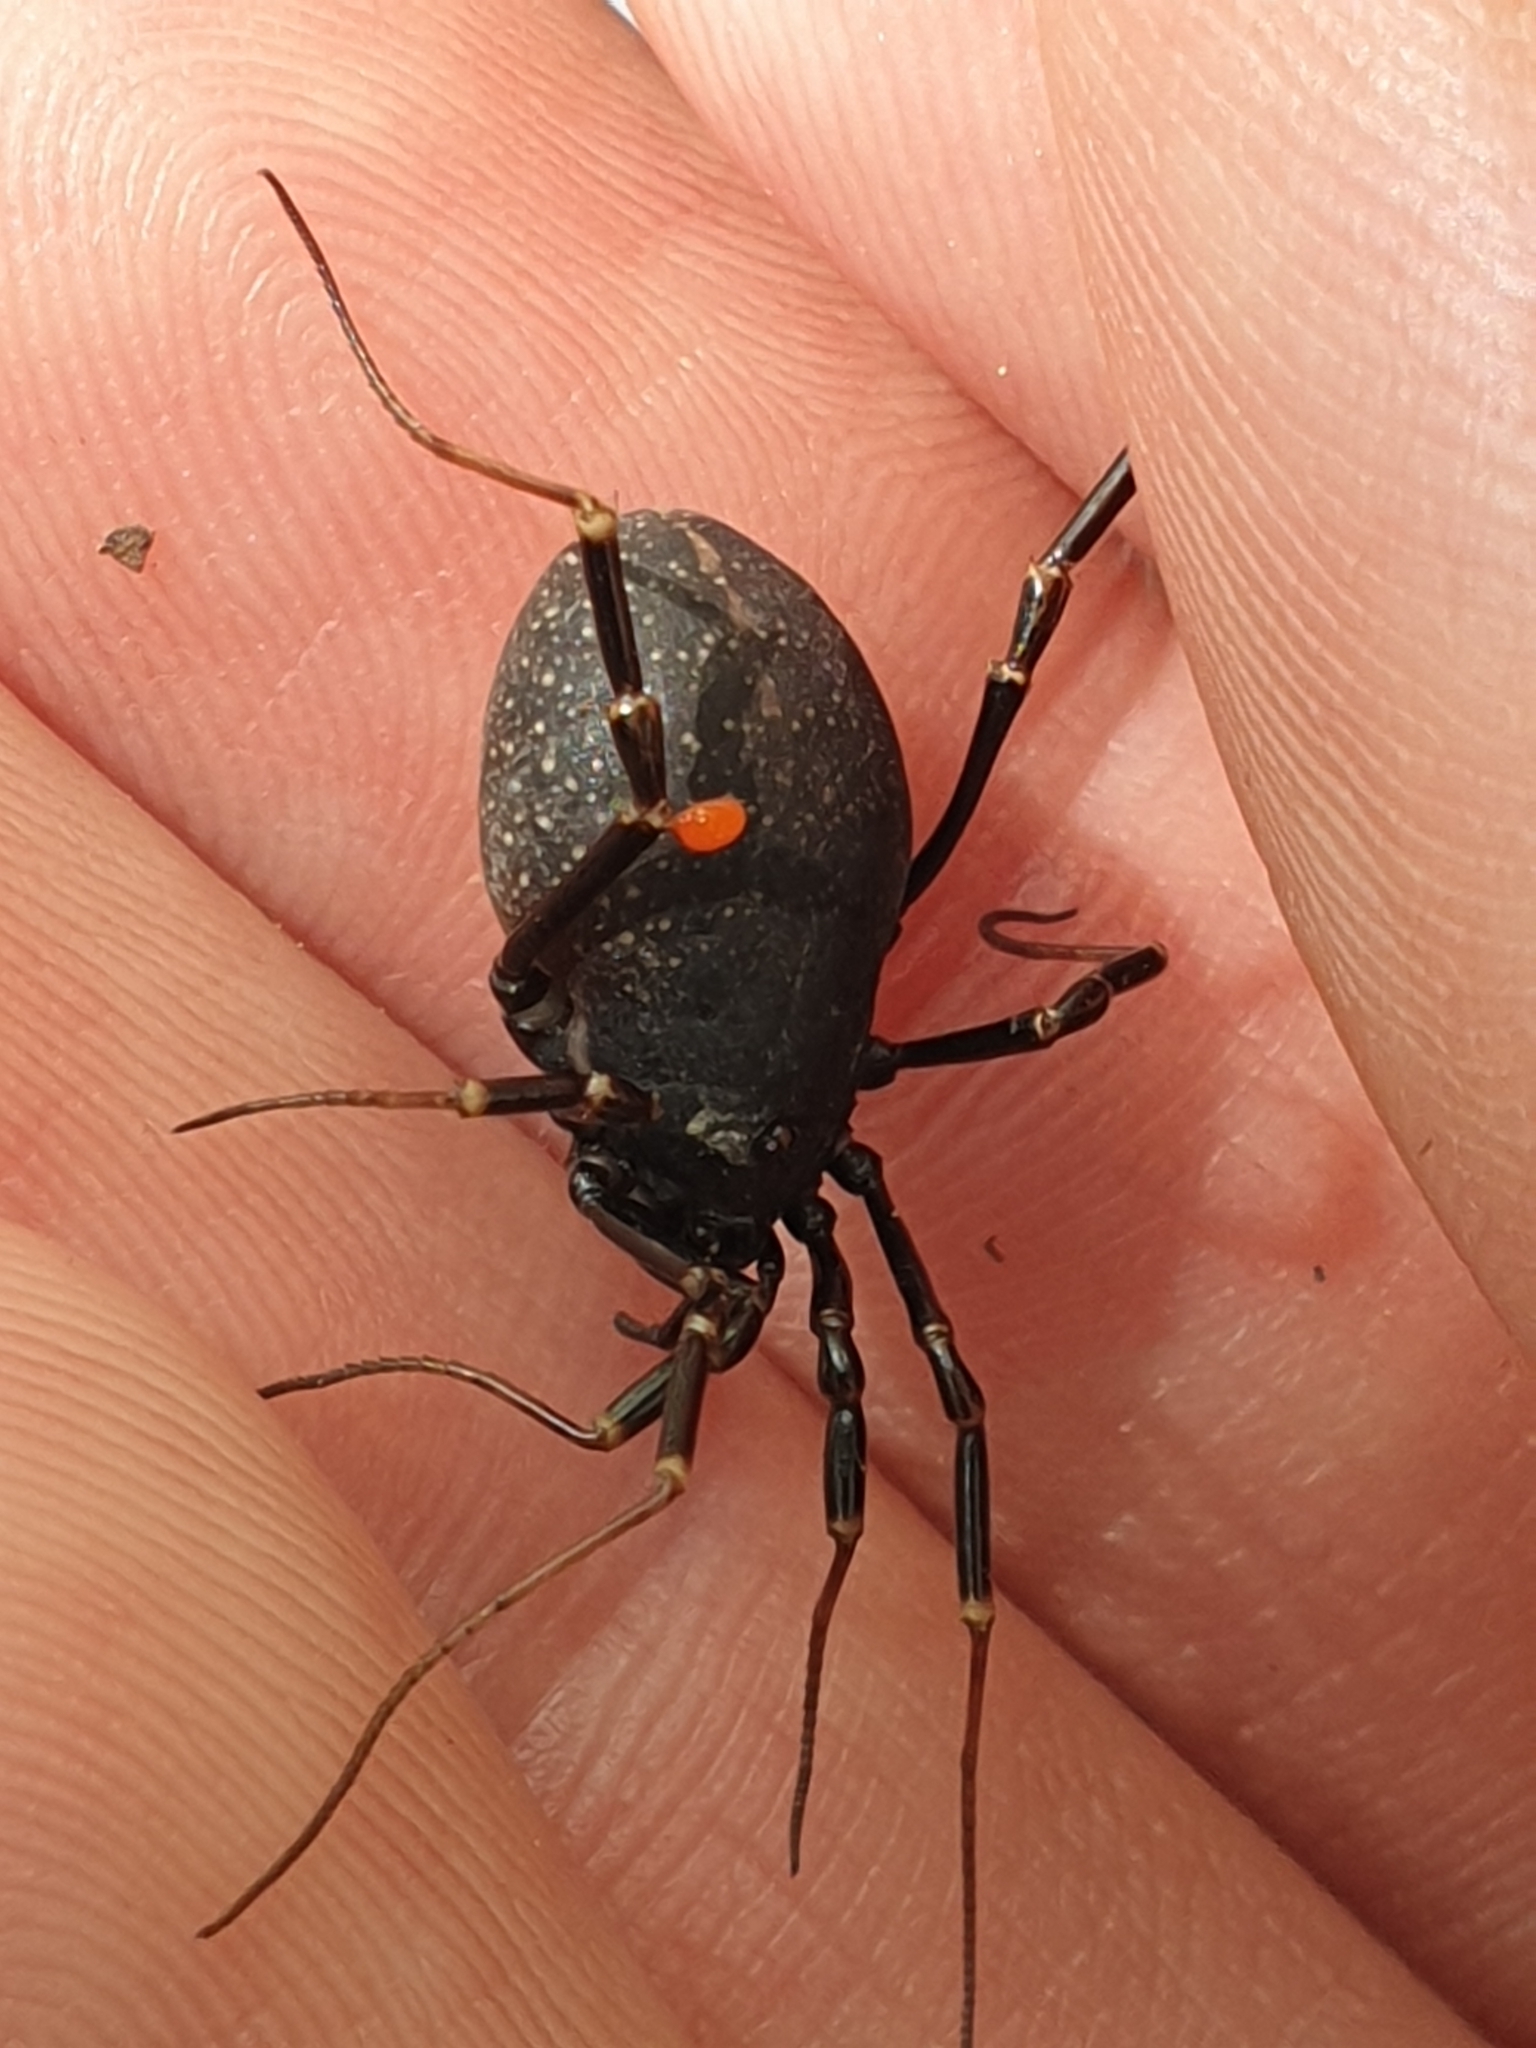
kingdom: Animalia
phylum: Arthropoda
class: Arachnida
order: Opiliones
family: Phalangiidae
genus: Egaenus
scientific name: Egaenus convexus
